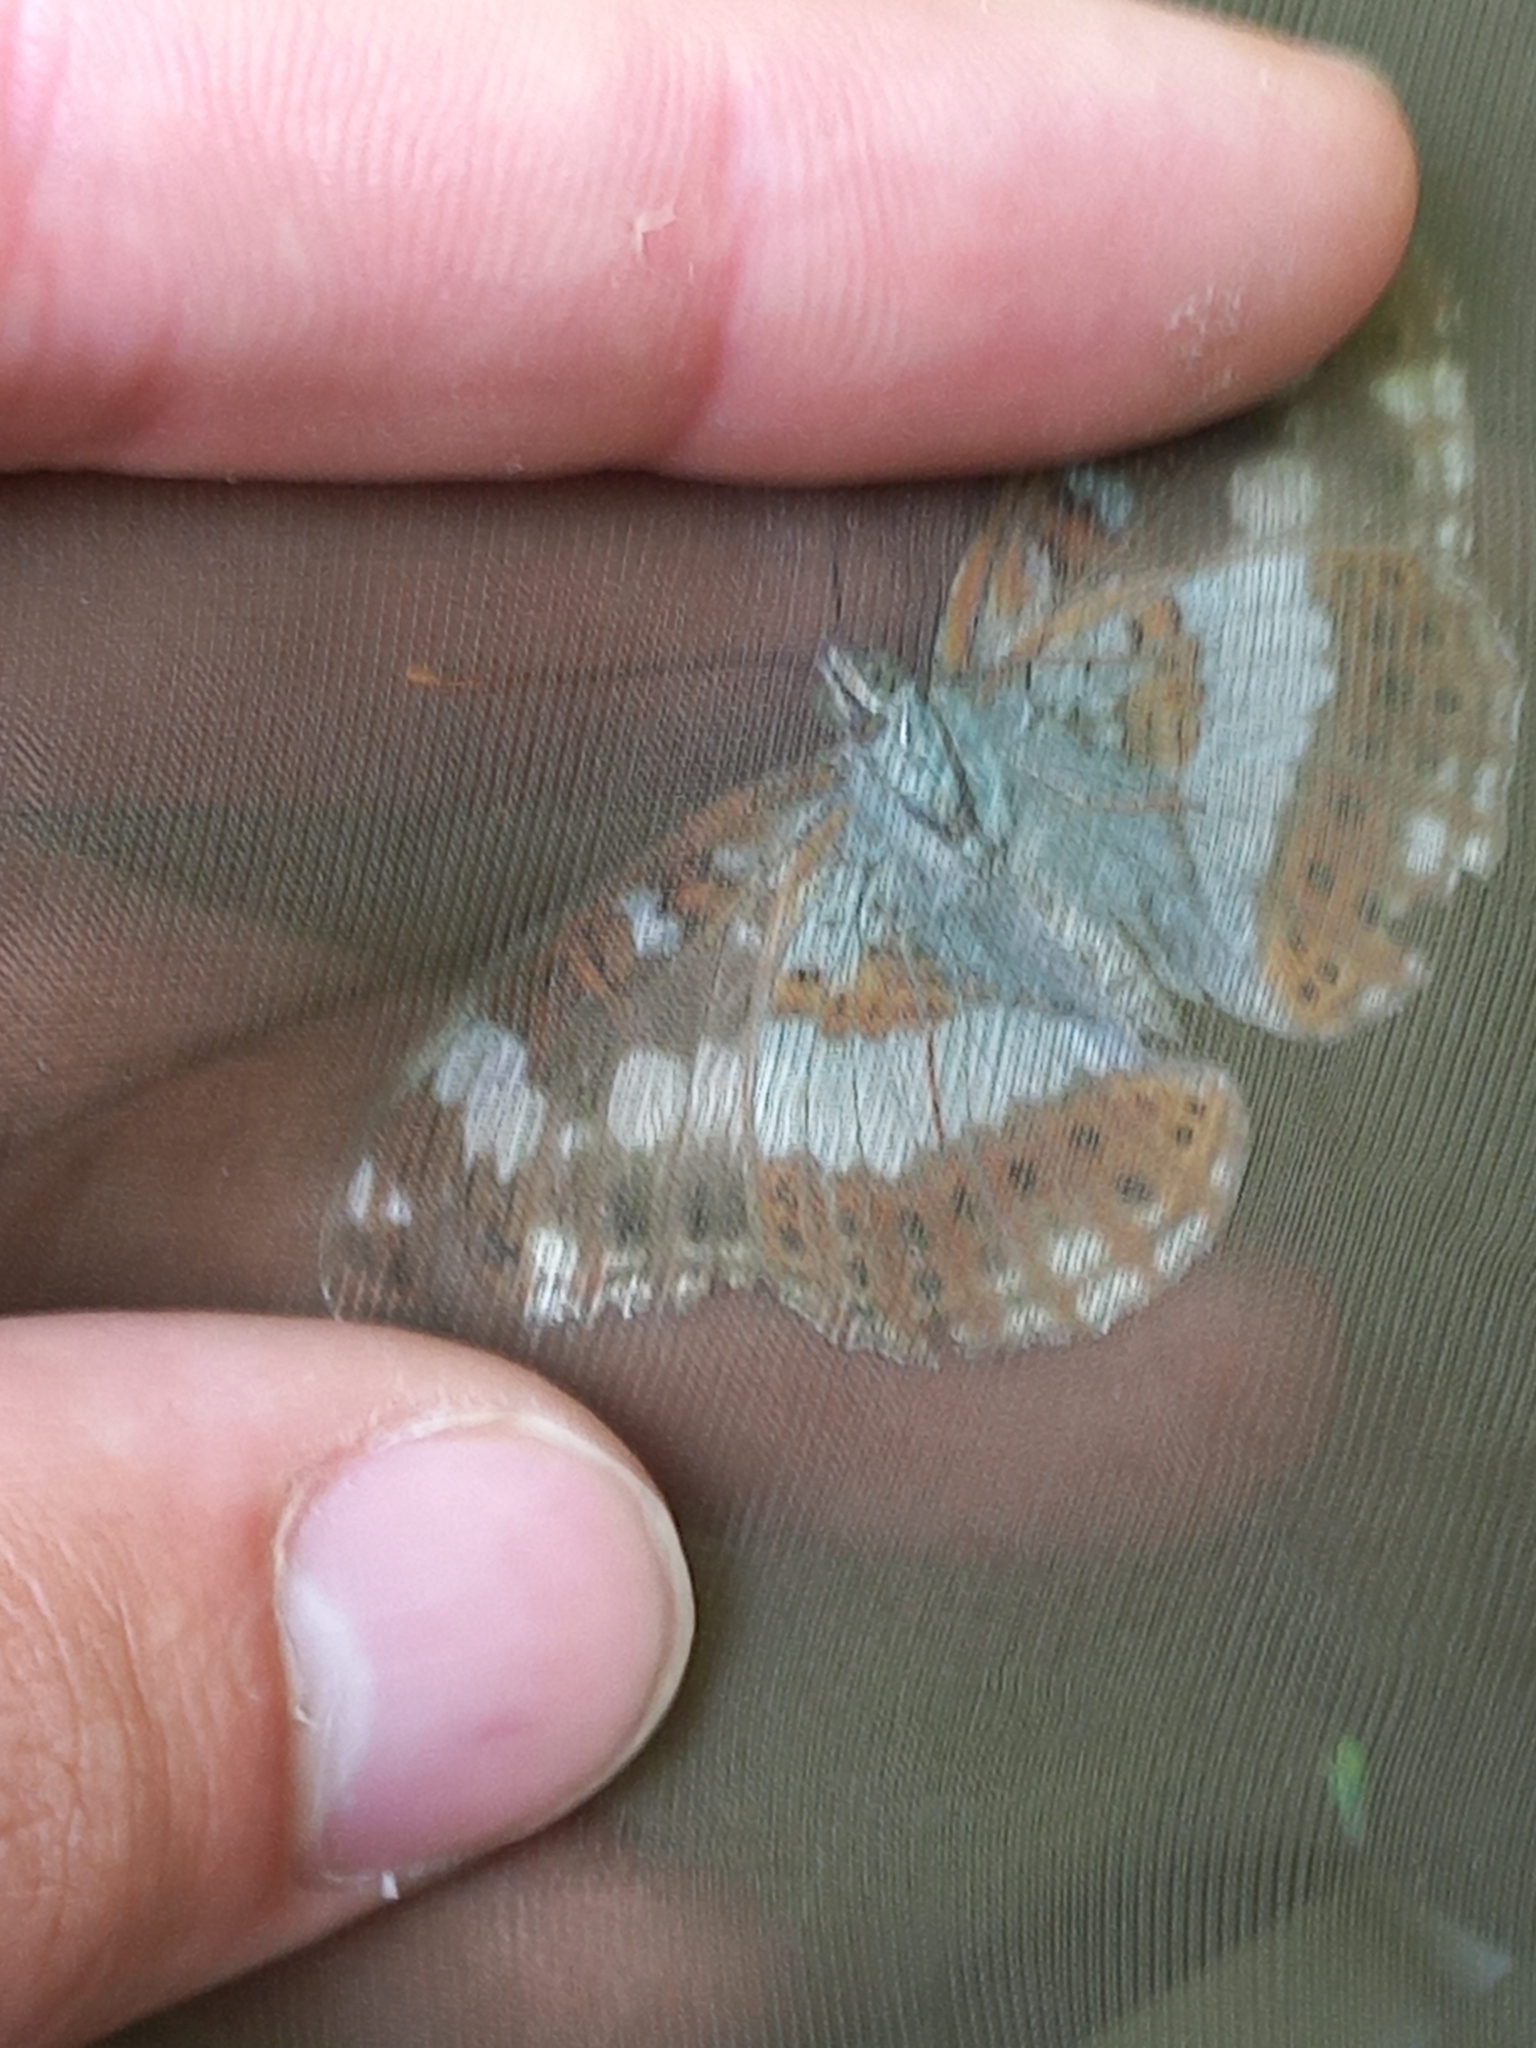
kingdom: Animalia
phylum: Arthropoda
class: Insecta
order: Lepidoptera
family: Nymphalidae
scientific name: Nymphalidae
